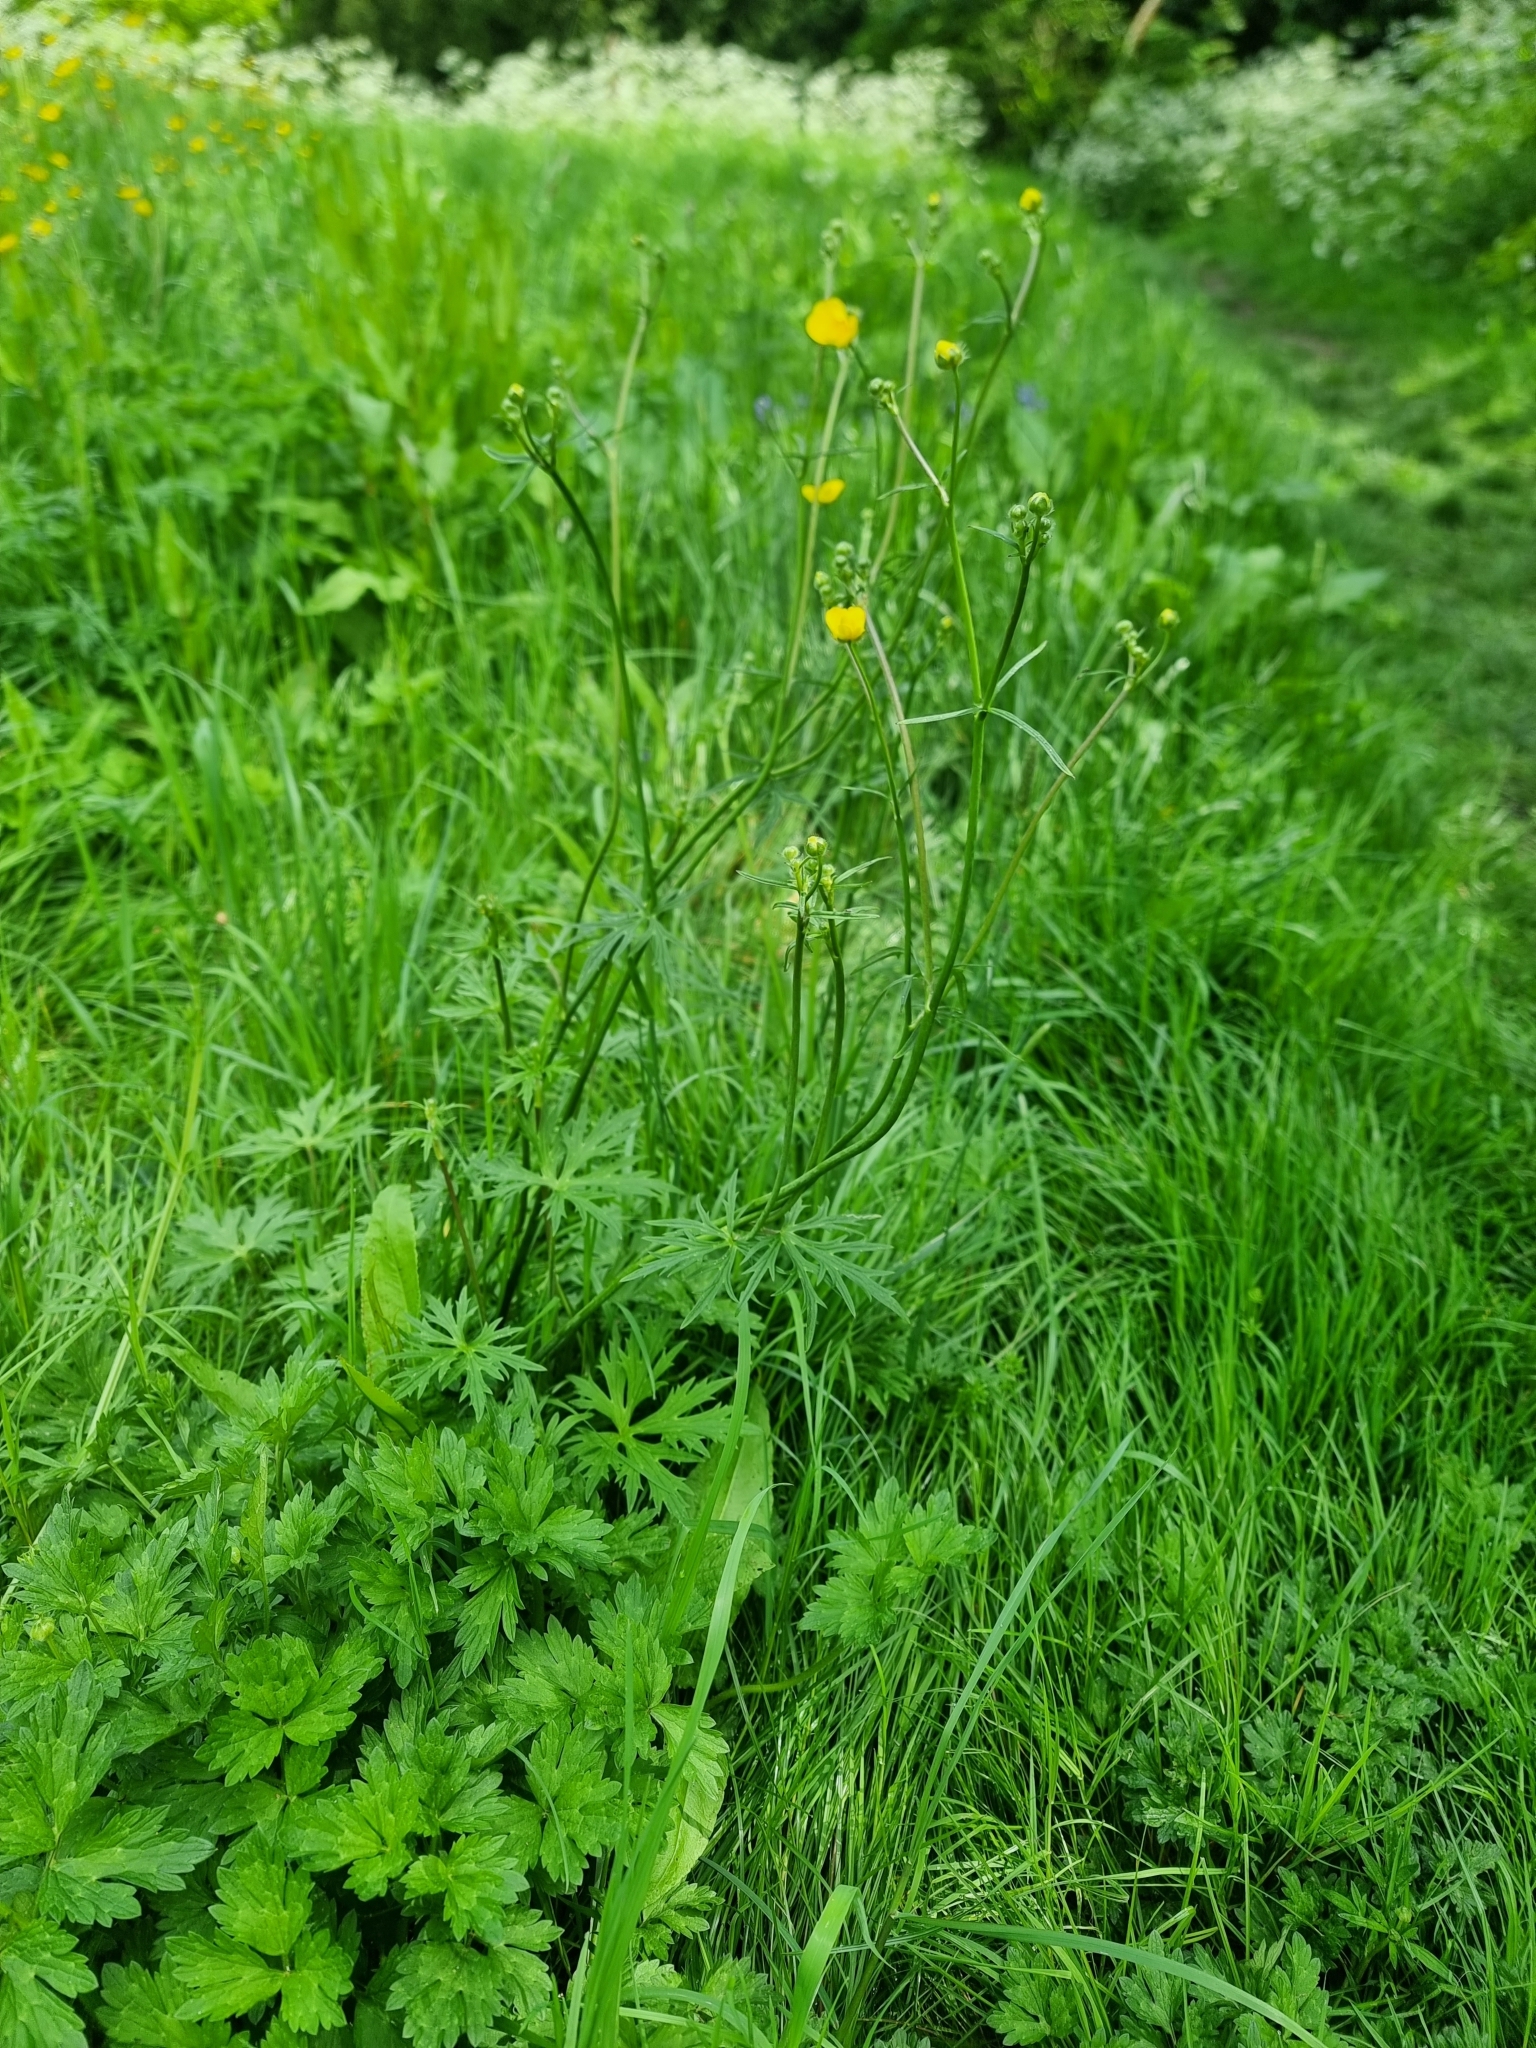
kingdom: Plantae
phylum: Tracheophyta
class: Magnoliopsida
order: Ranunculales
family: Ranunculaceae
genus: Ranunculus
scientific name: Ranunculus acris
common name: Meadow buttercup
